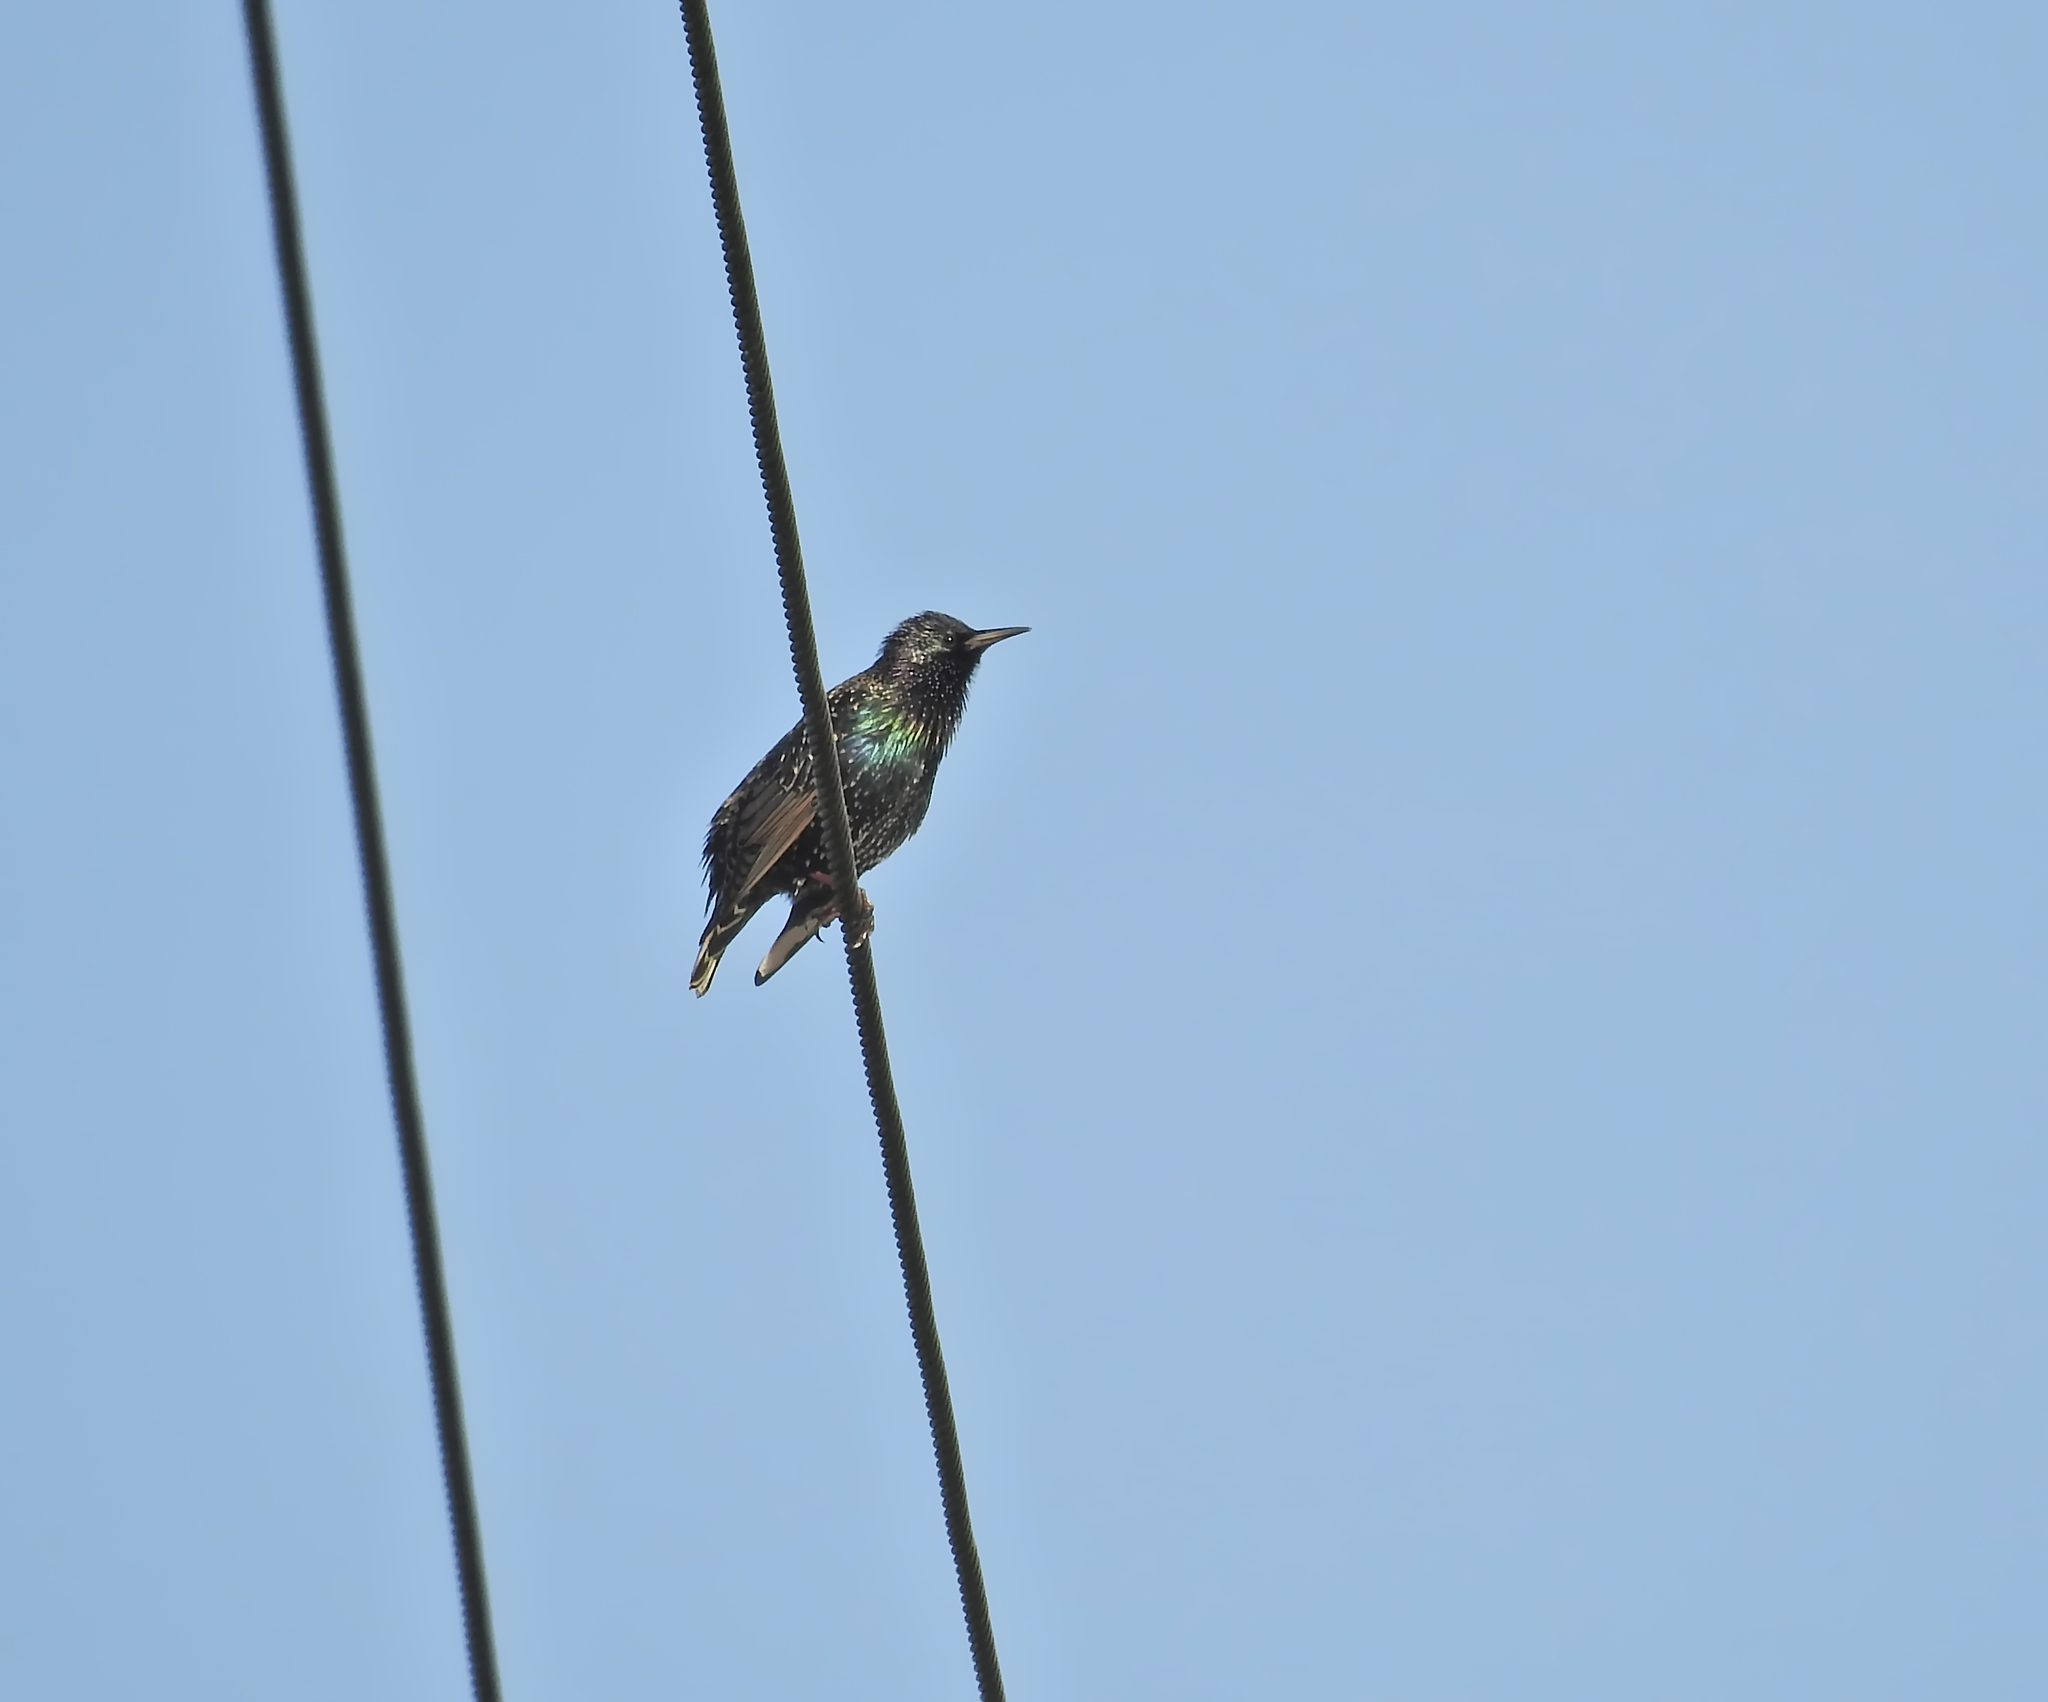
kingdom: Animalia
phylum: Chordata
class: Aves
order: Passeriformes
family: Sturnidae
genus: Sturnus
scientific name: Sturnus vulgaris
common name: Common starling
